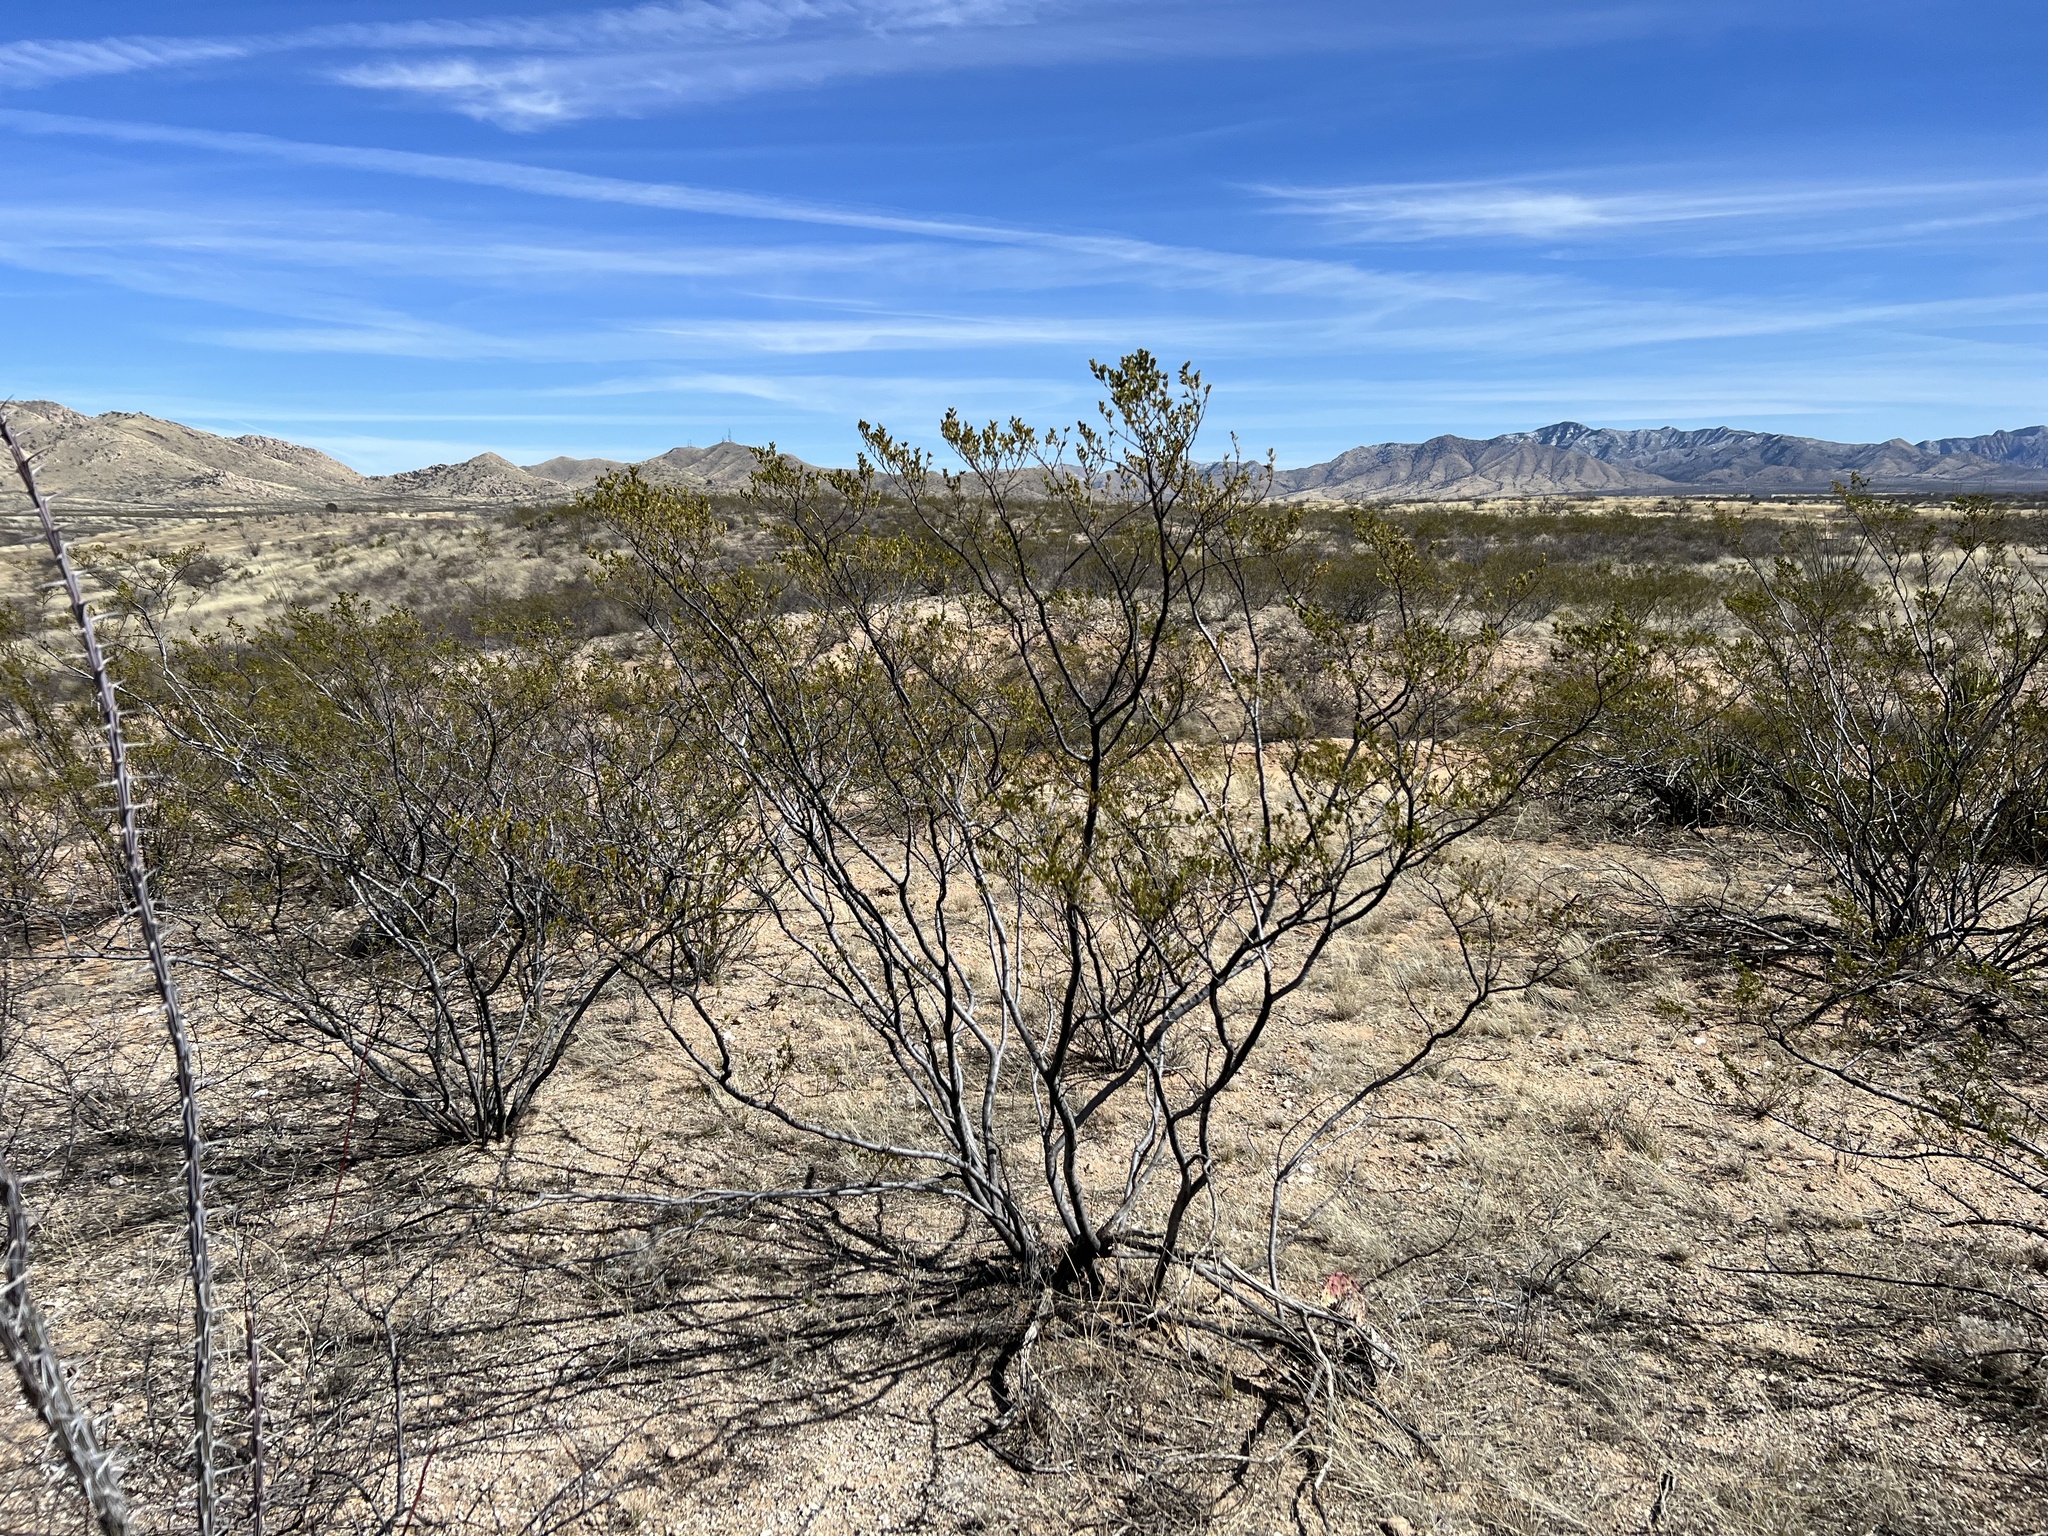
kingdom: Plantae
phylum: Tracheophyta
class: Magnoliopsida
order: Zygophyllales
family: Zygophyllaceae
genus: Larrea
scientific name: Larrea tridentata
